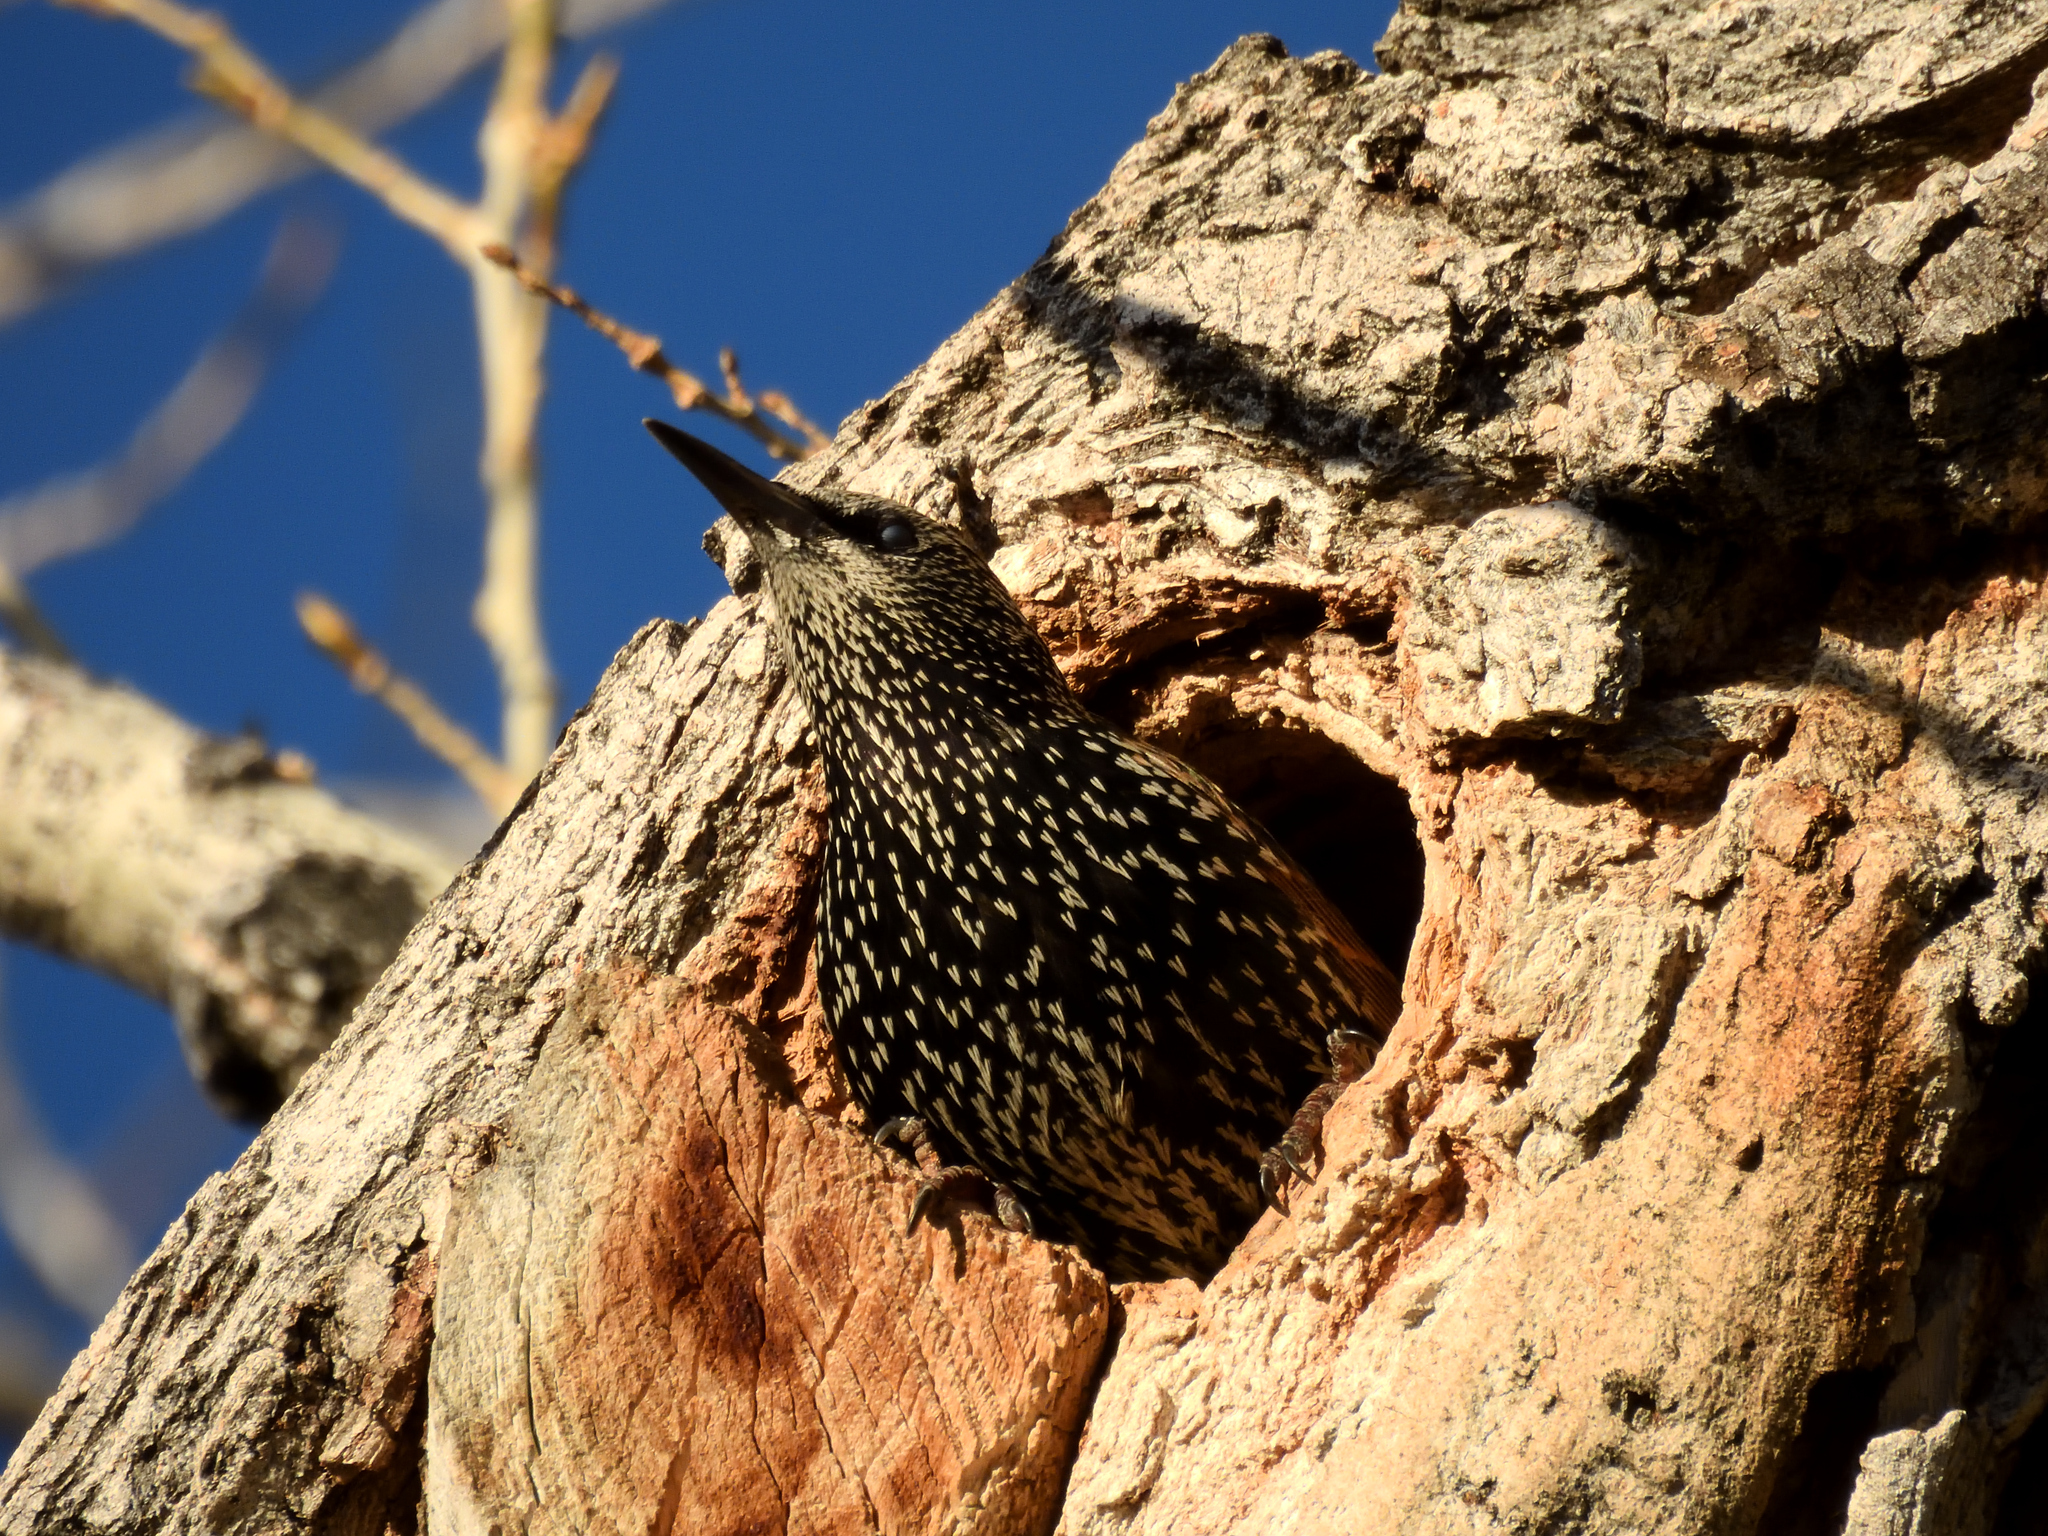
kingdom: Animalia
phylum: Chordata
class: Aves
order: Passeriformes
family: Sturnidae
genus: Sturnus
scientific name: Sturnus vulgaris
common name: Common starling
